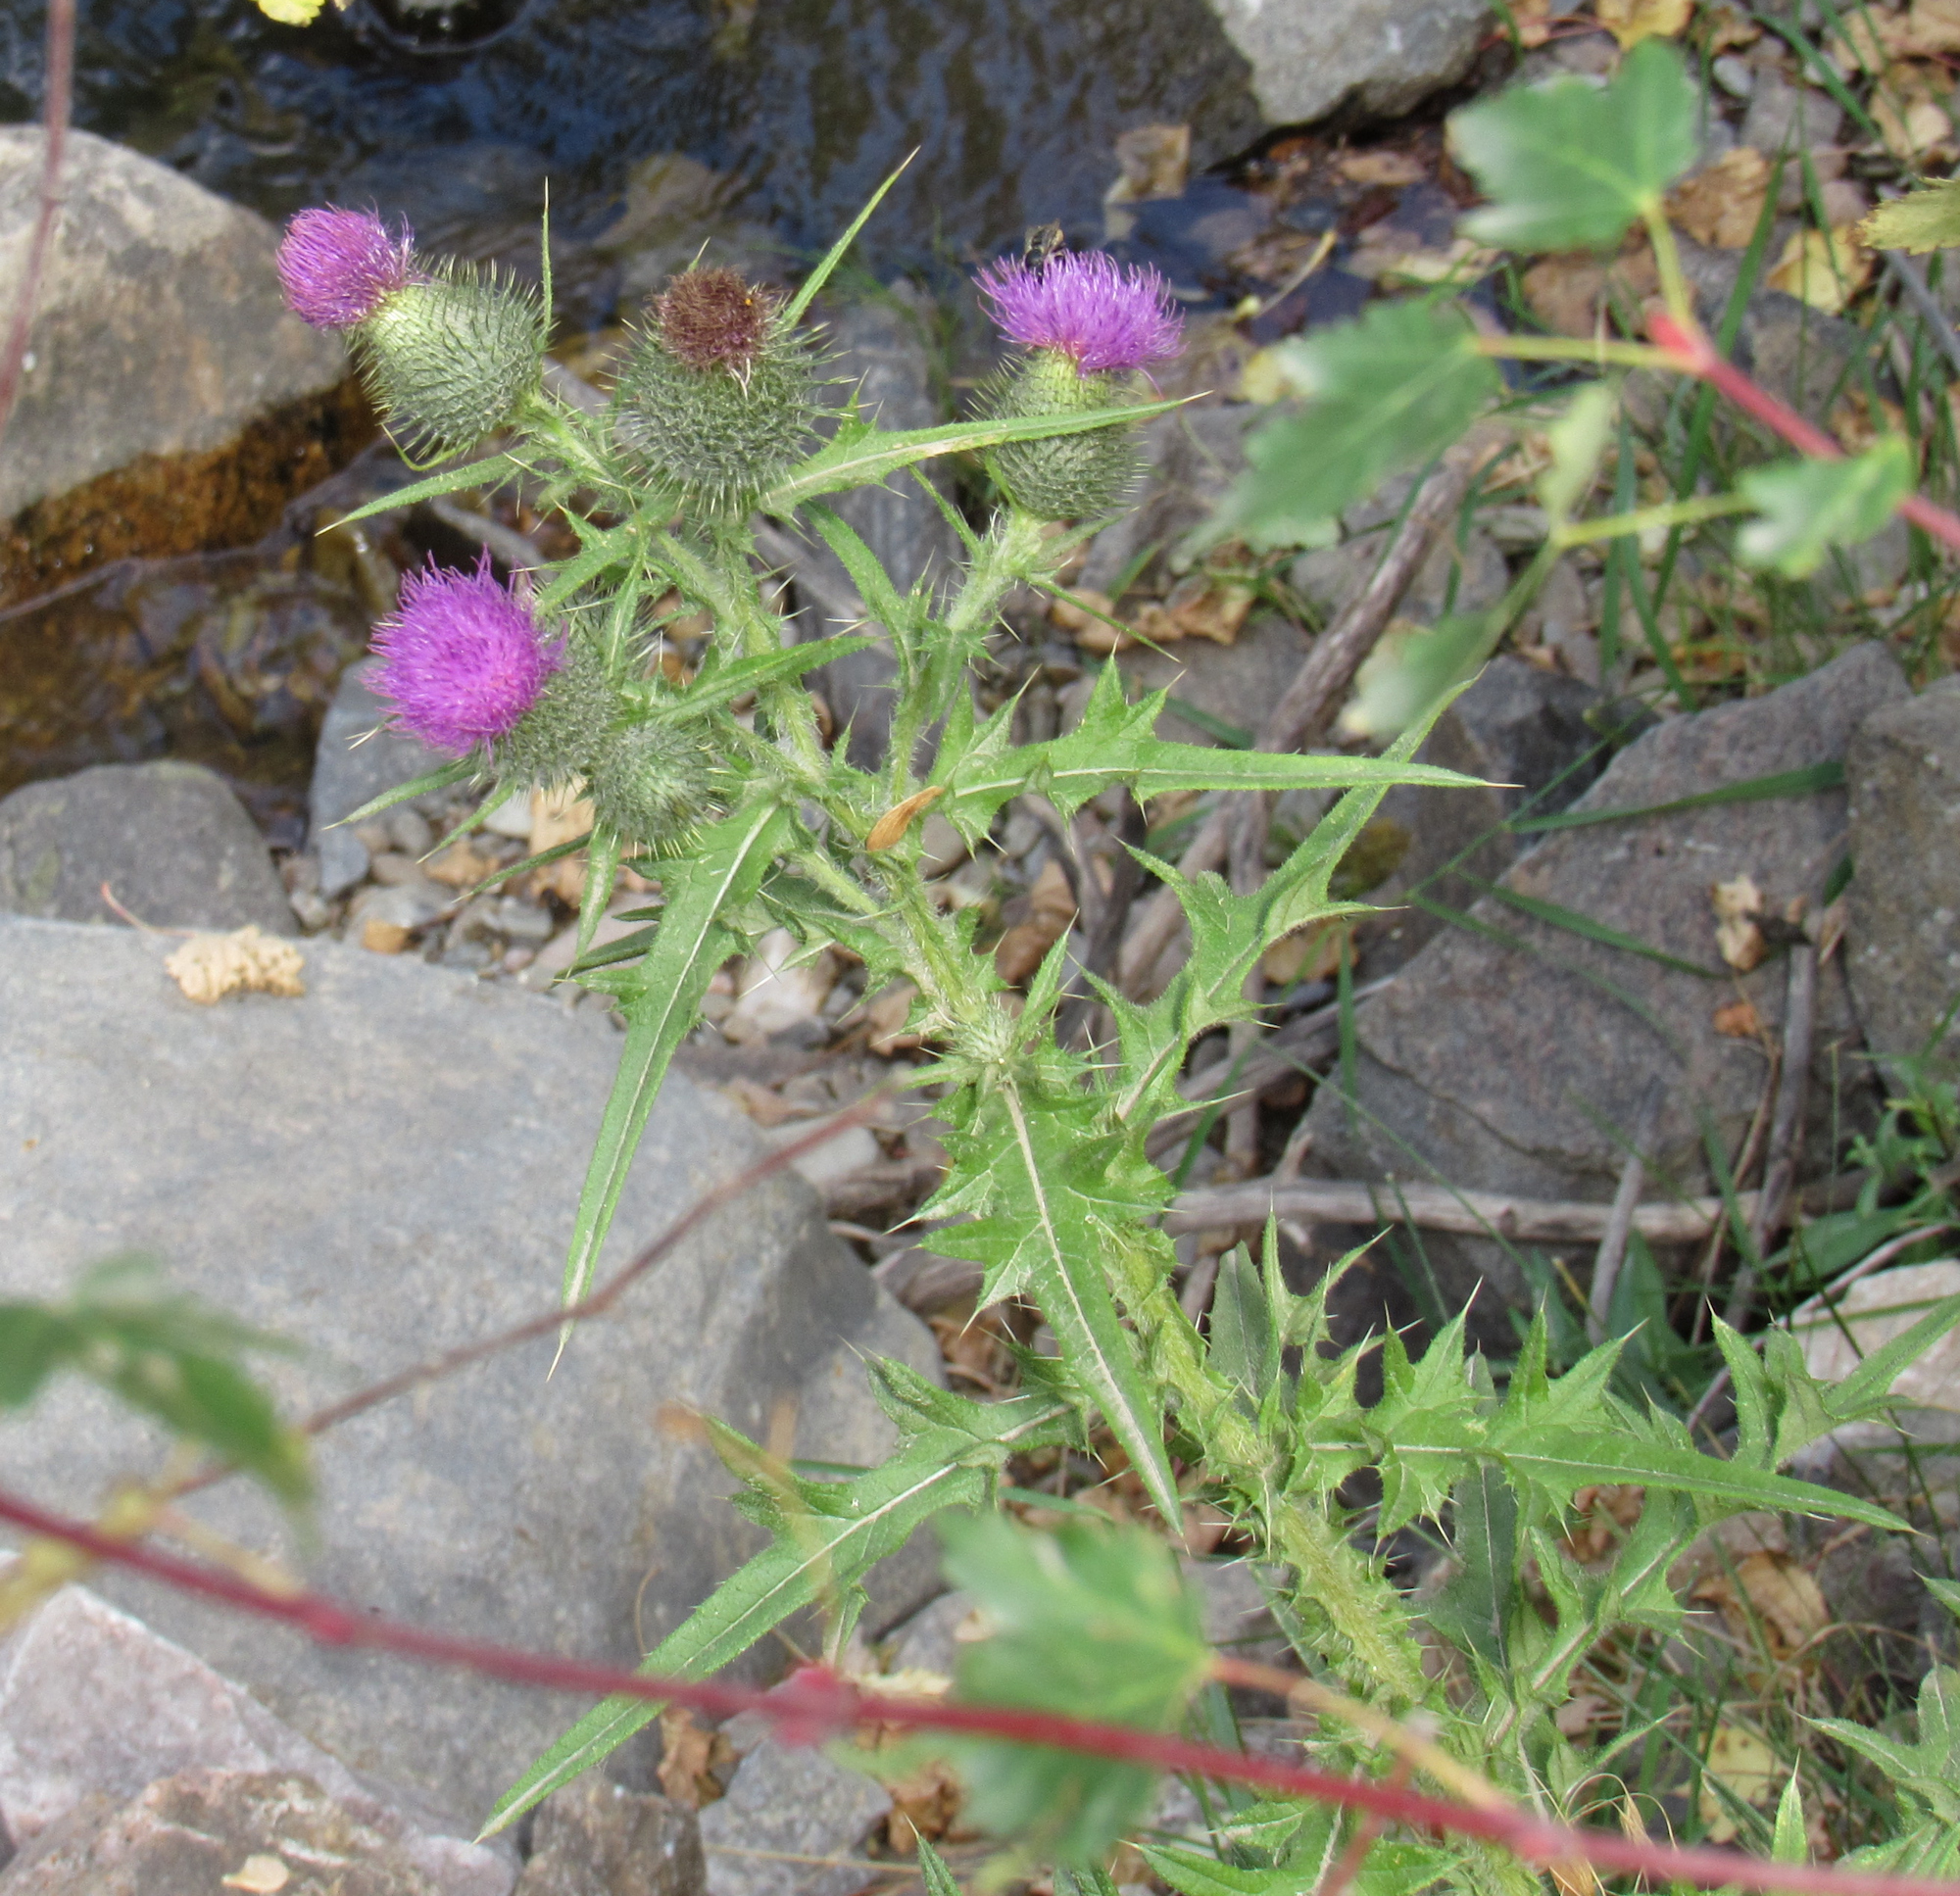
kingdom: Plantae
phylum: Tracheophyta
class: Magnoliopsida
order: Asterales
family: Asteraceae
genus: Cirsium
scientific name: Cirsium vulgare
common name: Bull thistle
